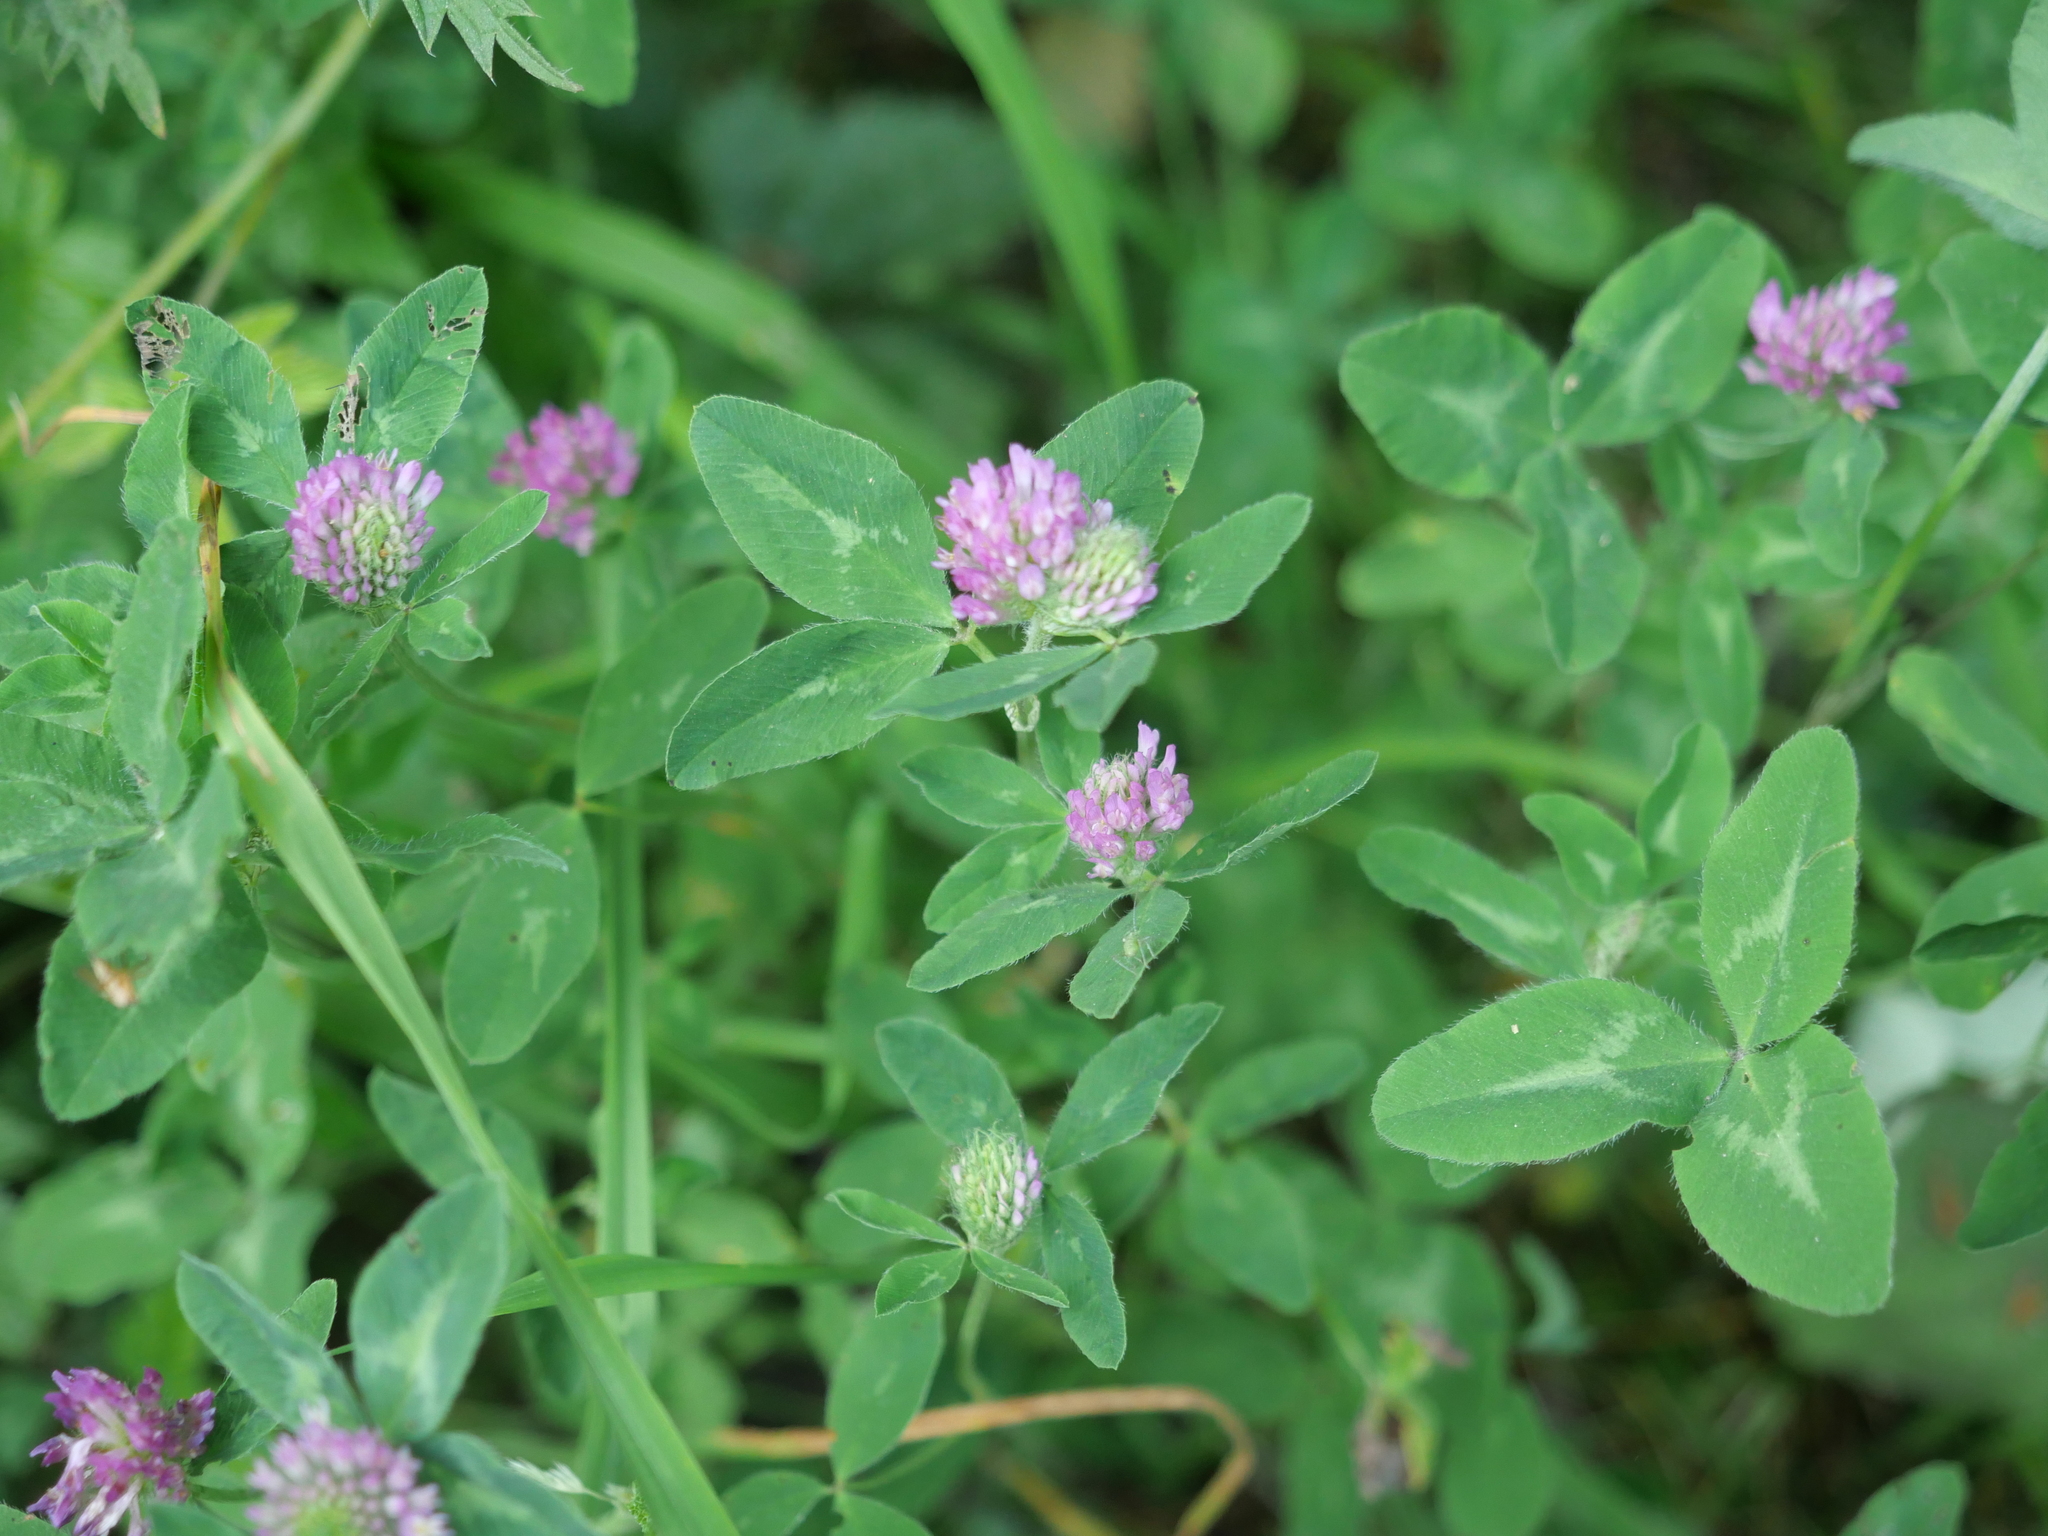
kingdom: Plantae
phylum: Tracheophyta
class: Magnoliopsida
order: Fabales
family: Fabaceae
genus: Trifolium
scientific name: Trifolium pratense
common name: Red clover
